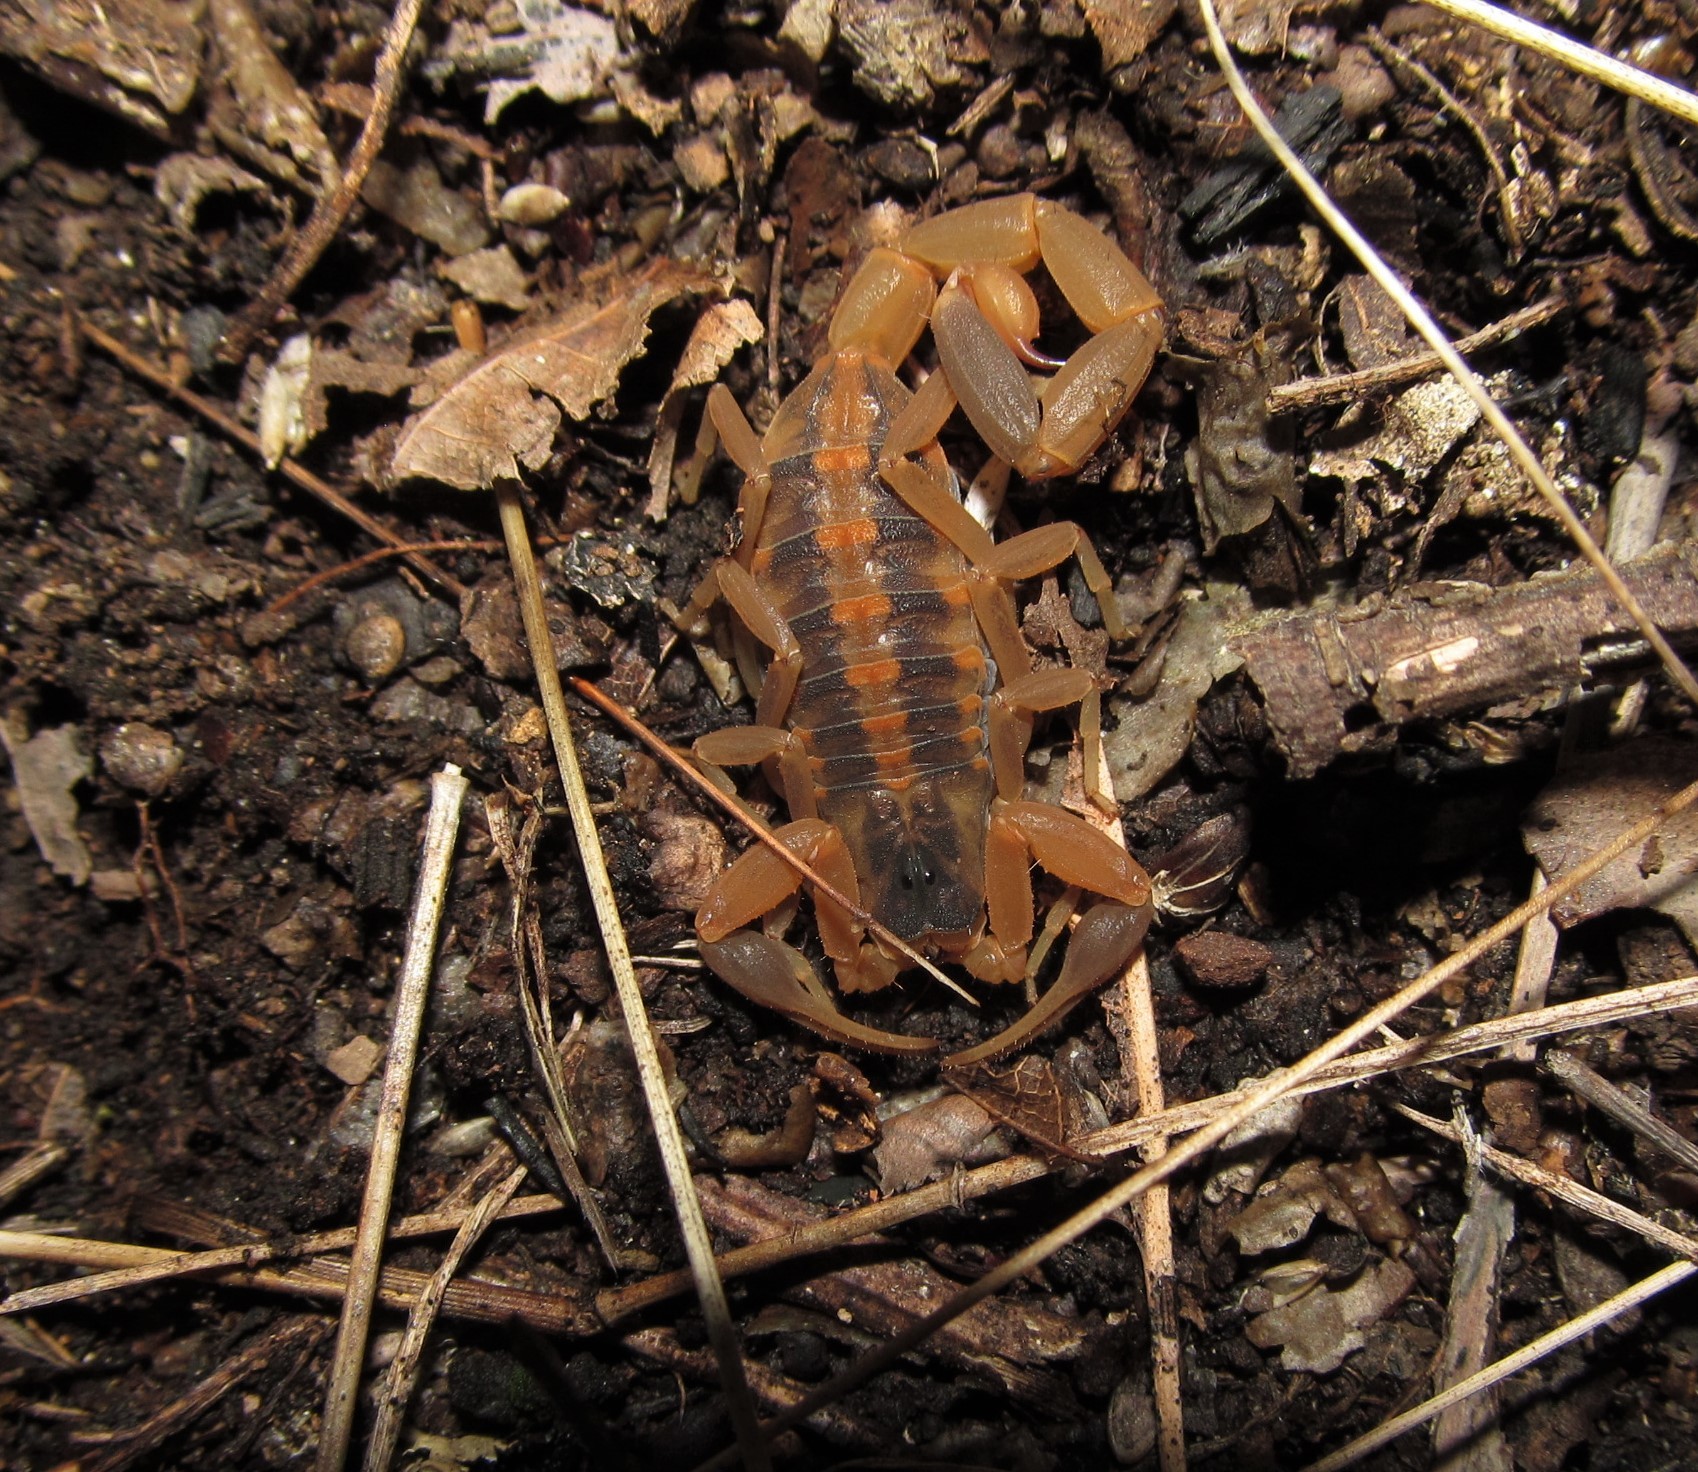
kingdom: Animalia
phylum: Arthropoda
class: Arachnida
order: Scorpiones
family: Buthidae
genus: Centruroides
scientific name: Centruroides vittatus
